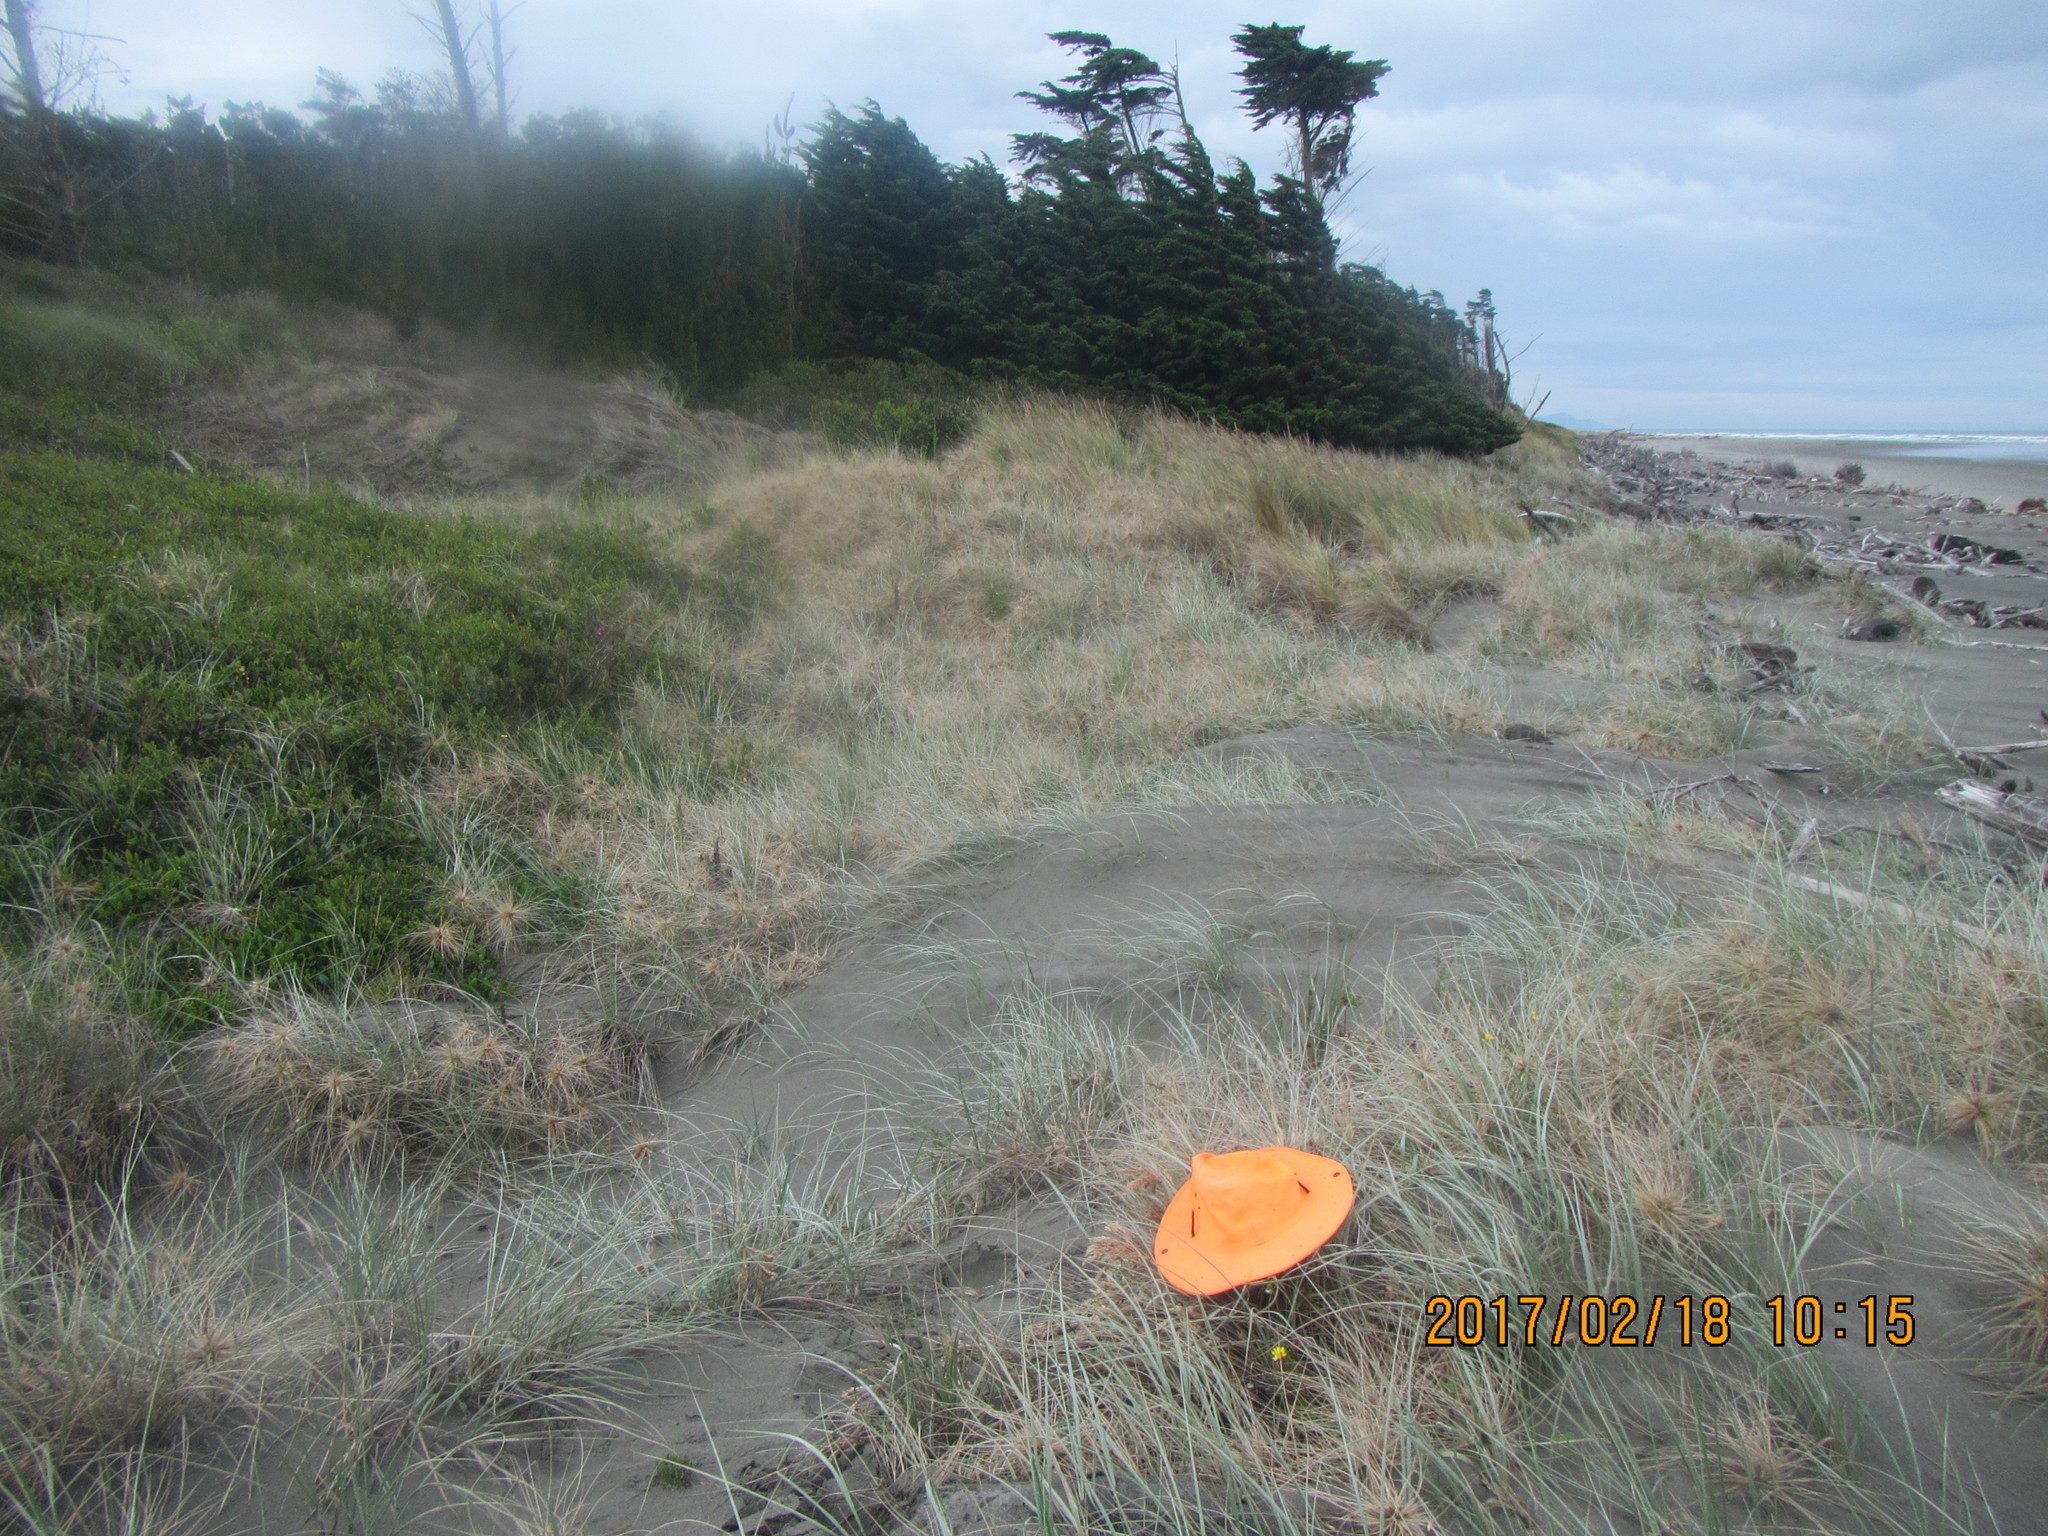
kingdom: Animalia
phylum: Arthropoda
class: Arachnida
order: Araneae
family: Gnaphosidae
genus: Anzacia
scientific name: Anzacia gemmea
